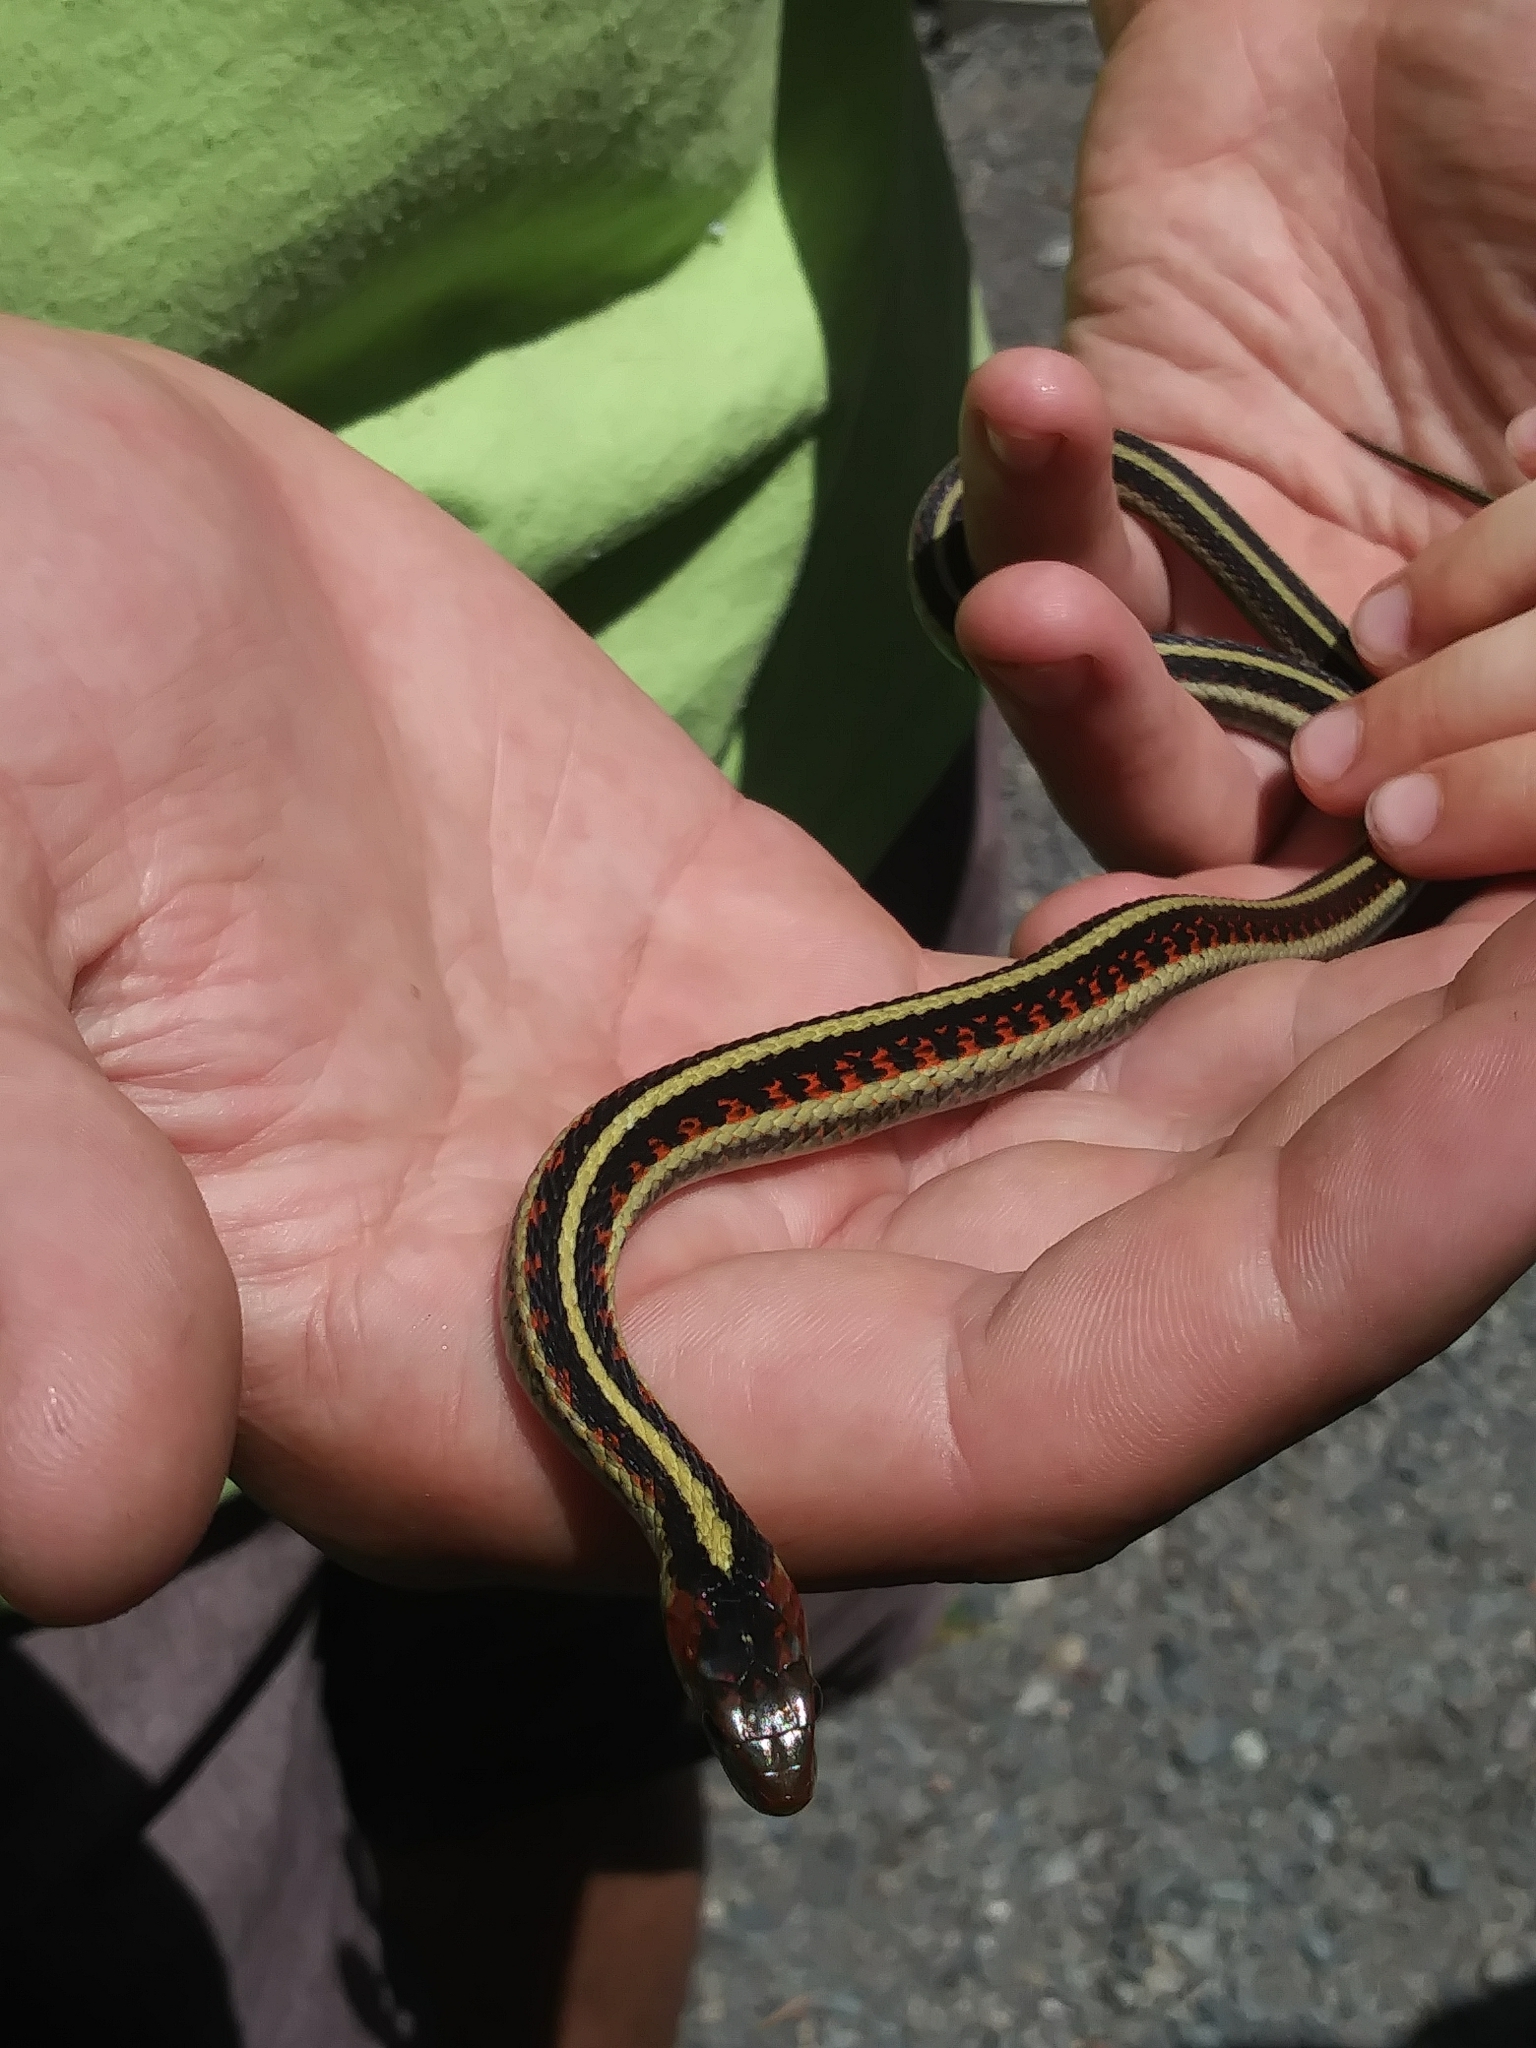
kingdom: Animalia
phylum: Chordata
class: Squamata
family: Colubridae
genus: Thamnophis
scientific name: Thamnophis sirtalis
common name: Common garter snake
